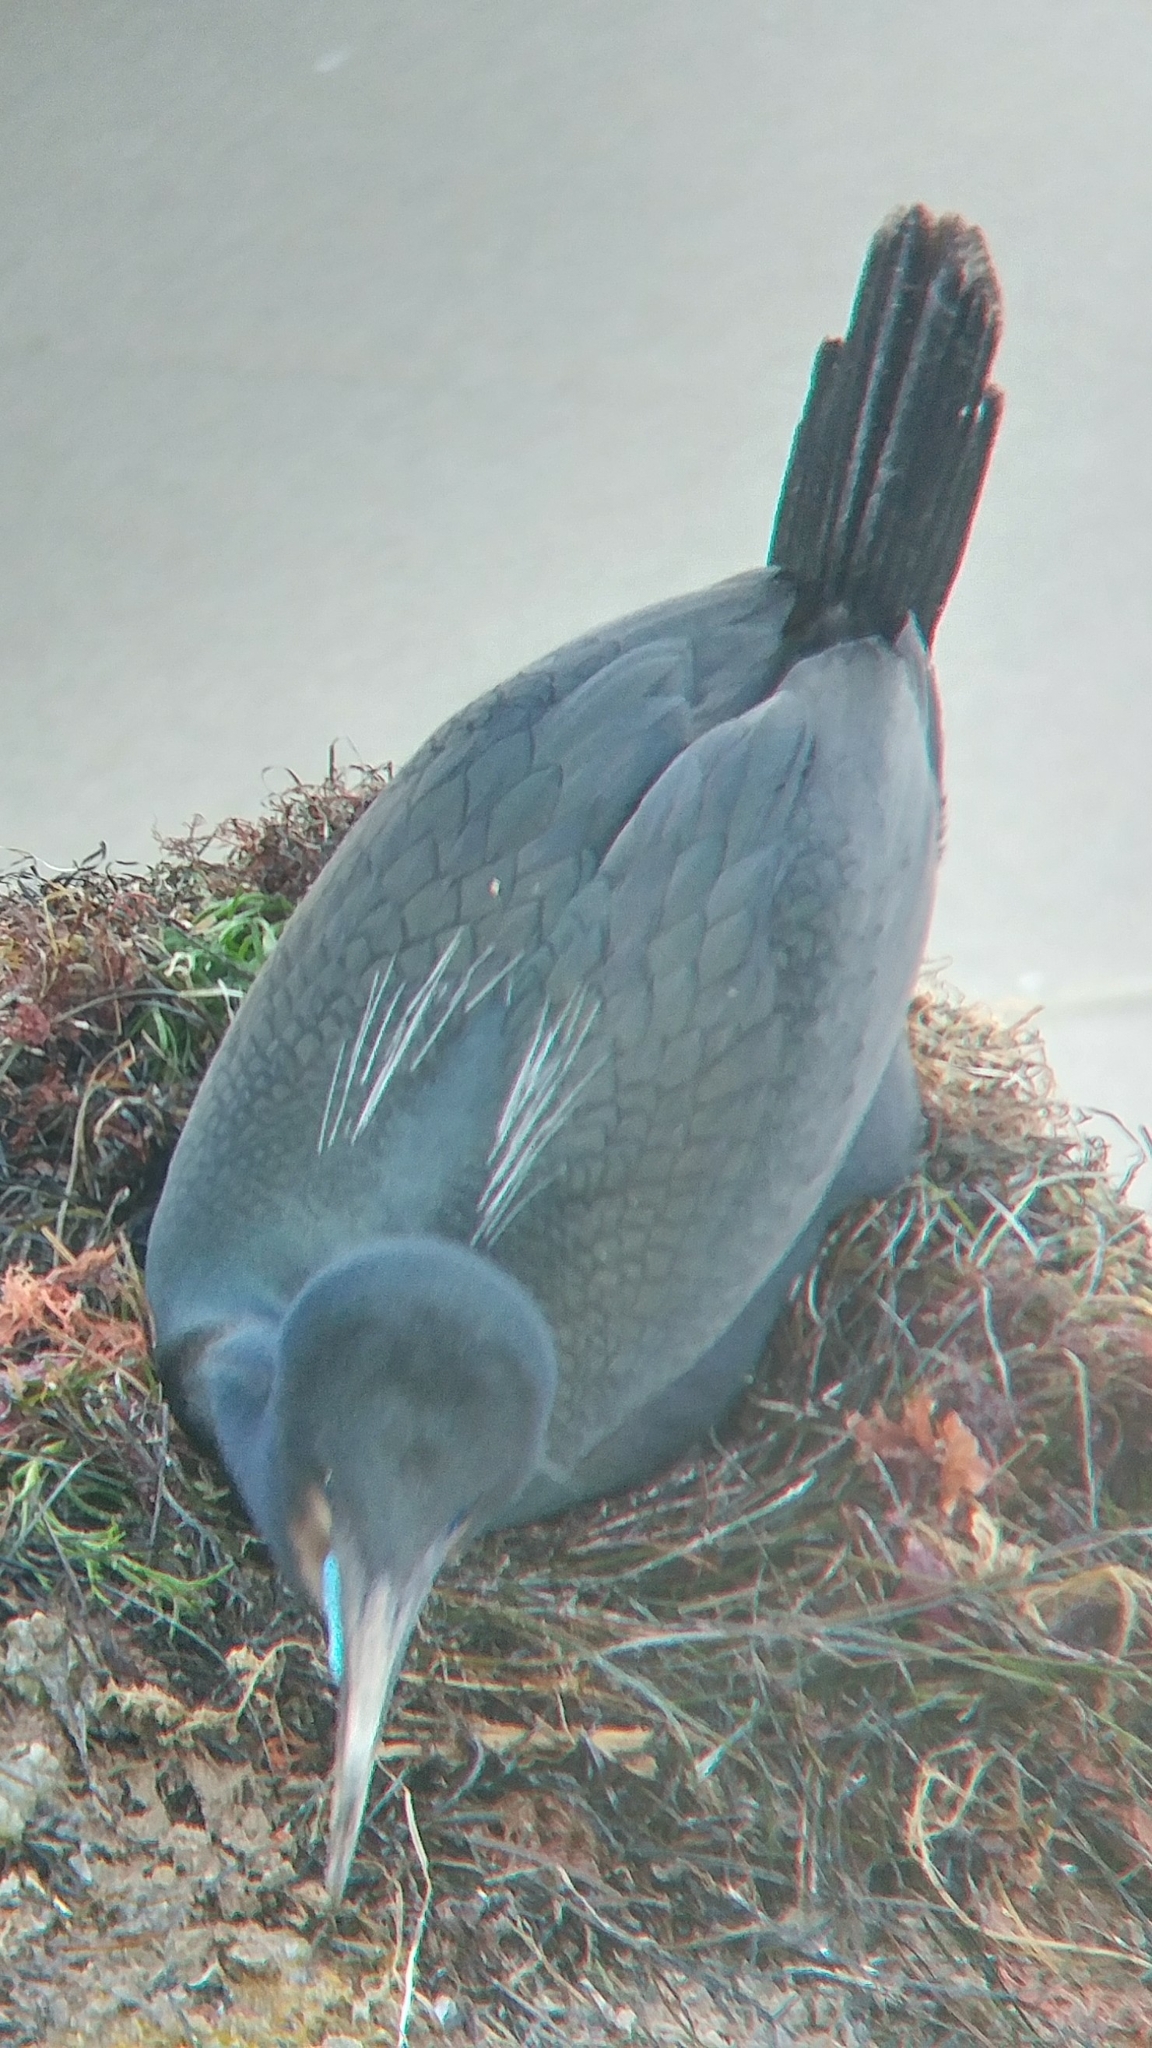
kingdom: Animalia
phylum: Chordata
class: Aves
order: Suliformes
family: Phalacrocoracidae
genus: Urile
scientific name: Urile penicillatus
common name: Brandt's cormorant
